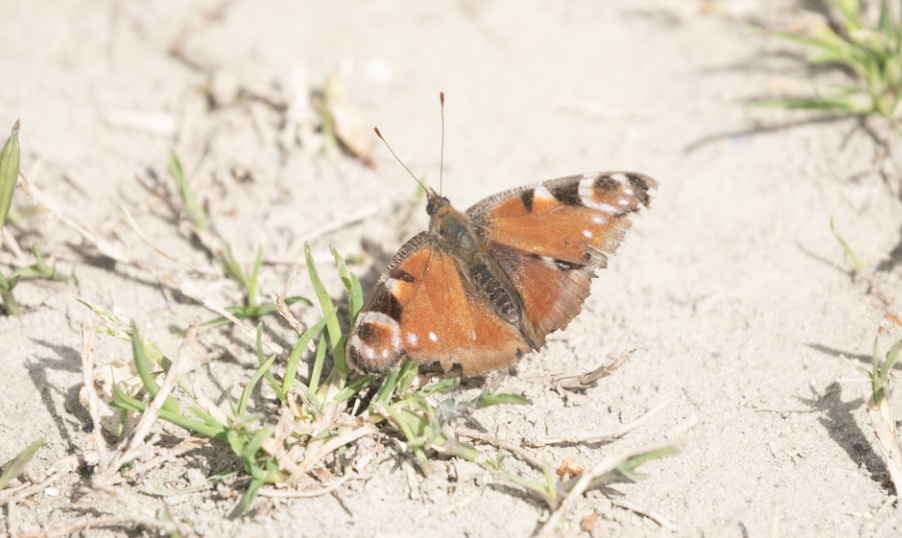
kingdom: Animalia
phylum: Arthropoda
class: Insecta
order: Lepidoptera
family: Nymphalidae
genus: Aglais
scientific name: Aglais io
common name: Peacock
